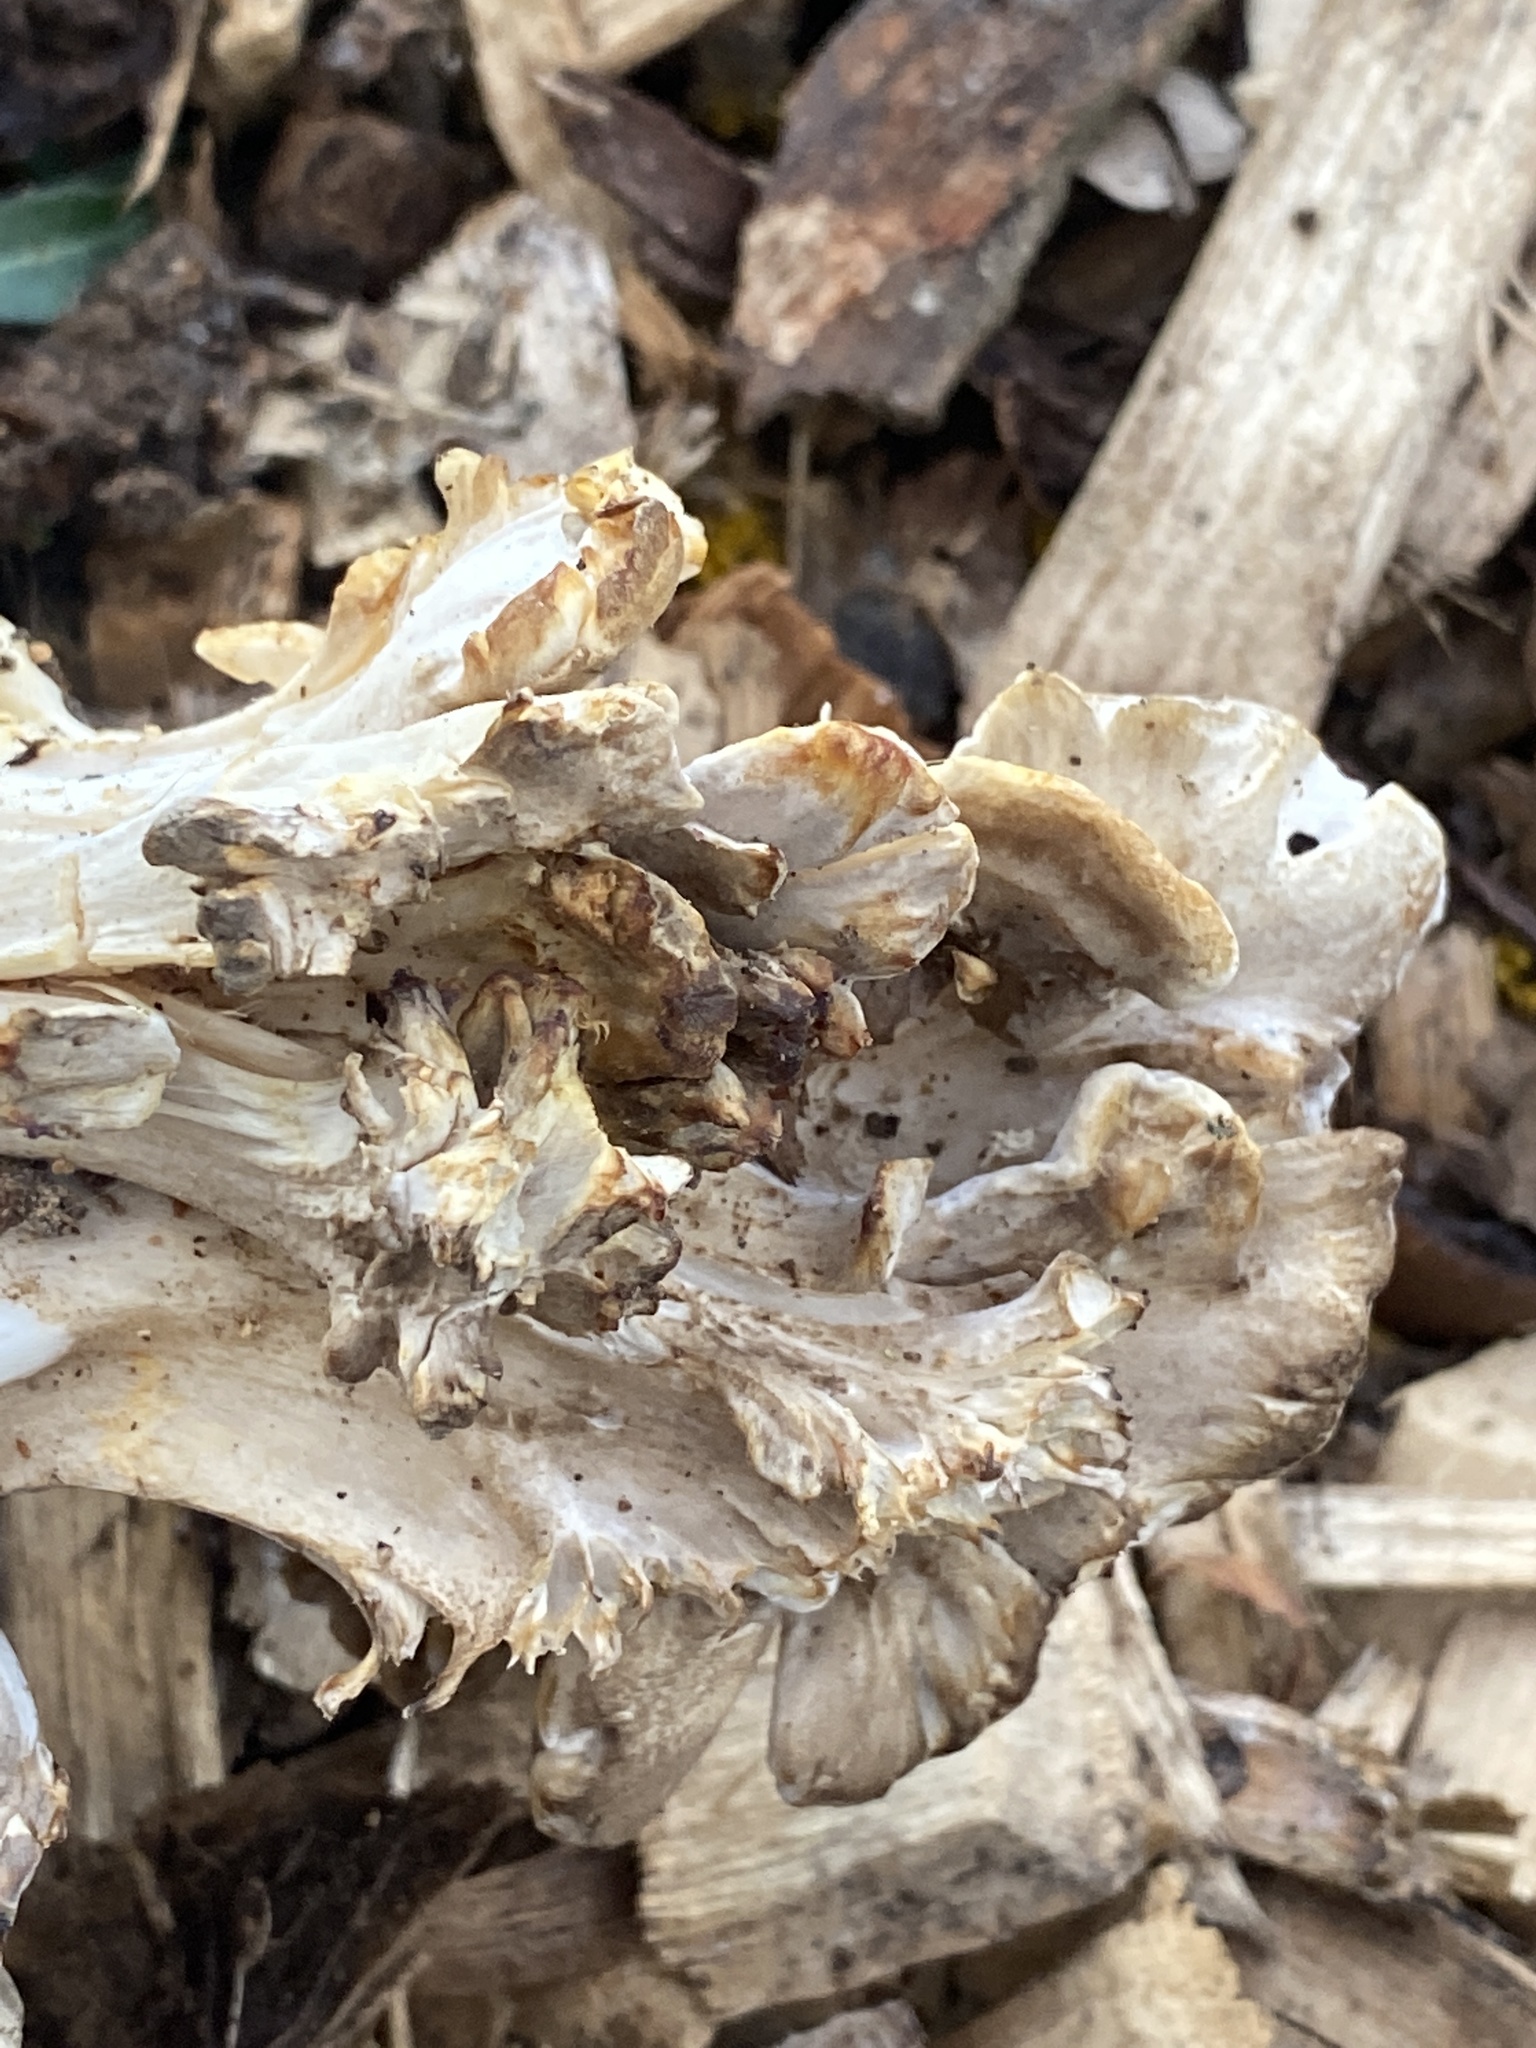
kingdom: Fungi
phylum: Basidiomycota
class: Agaricomycetes
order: Polyporales
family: Grifolaceae
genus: Grifola
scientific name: Grifola frondosa
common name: Hen of the woods
